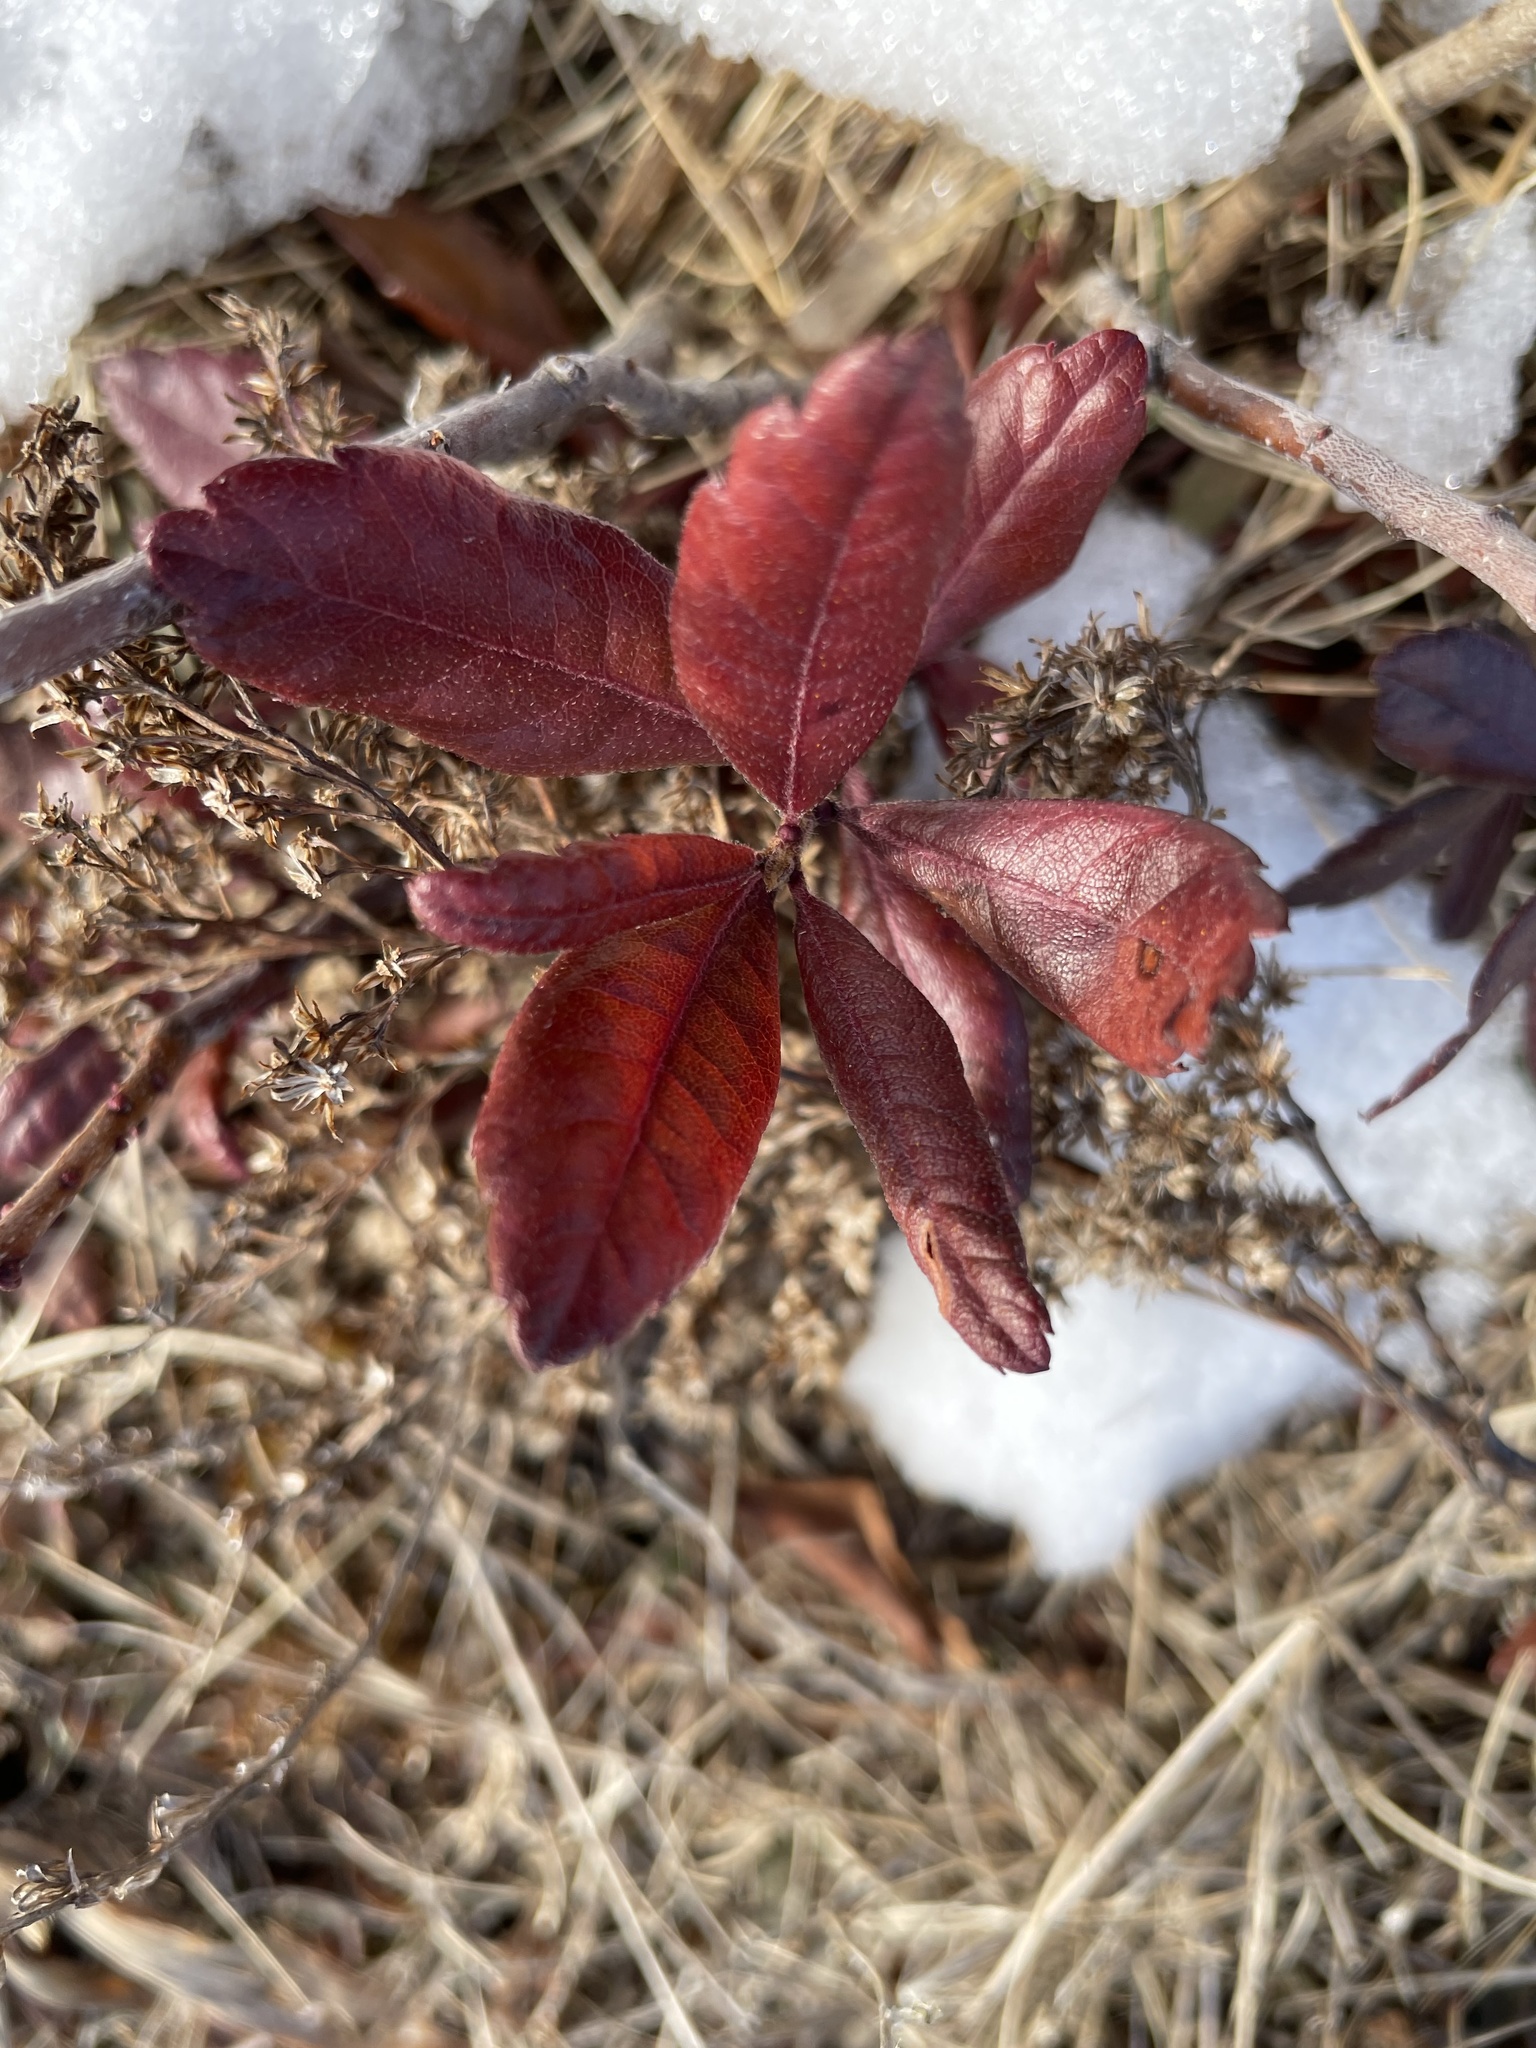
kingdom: Plantae
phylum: Tracheophyta
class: Magnoliopsida
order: Fagales
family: Myricaceae
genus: Morella
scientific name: Morella pensylvanica
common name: Northern bayberry
